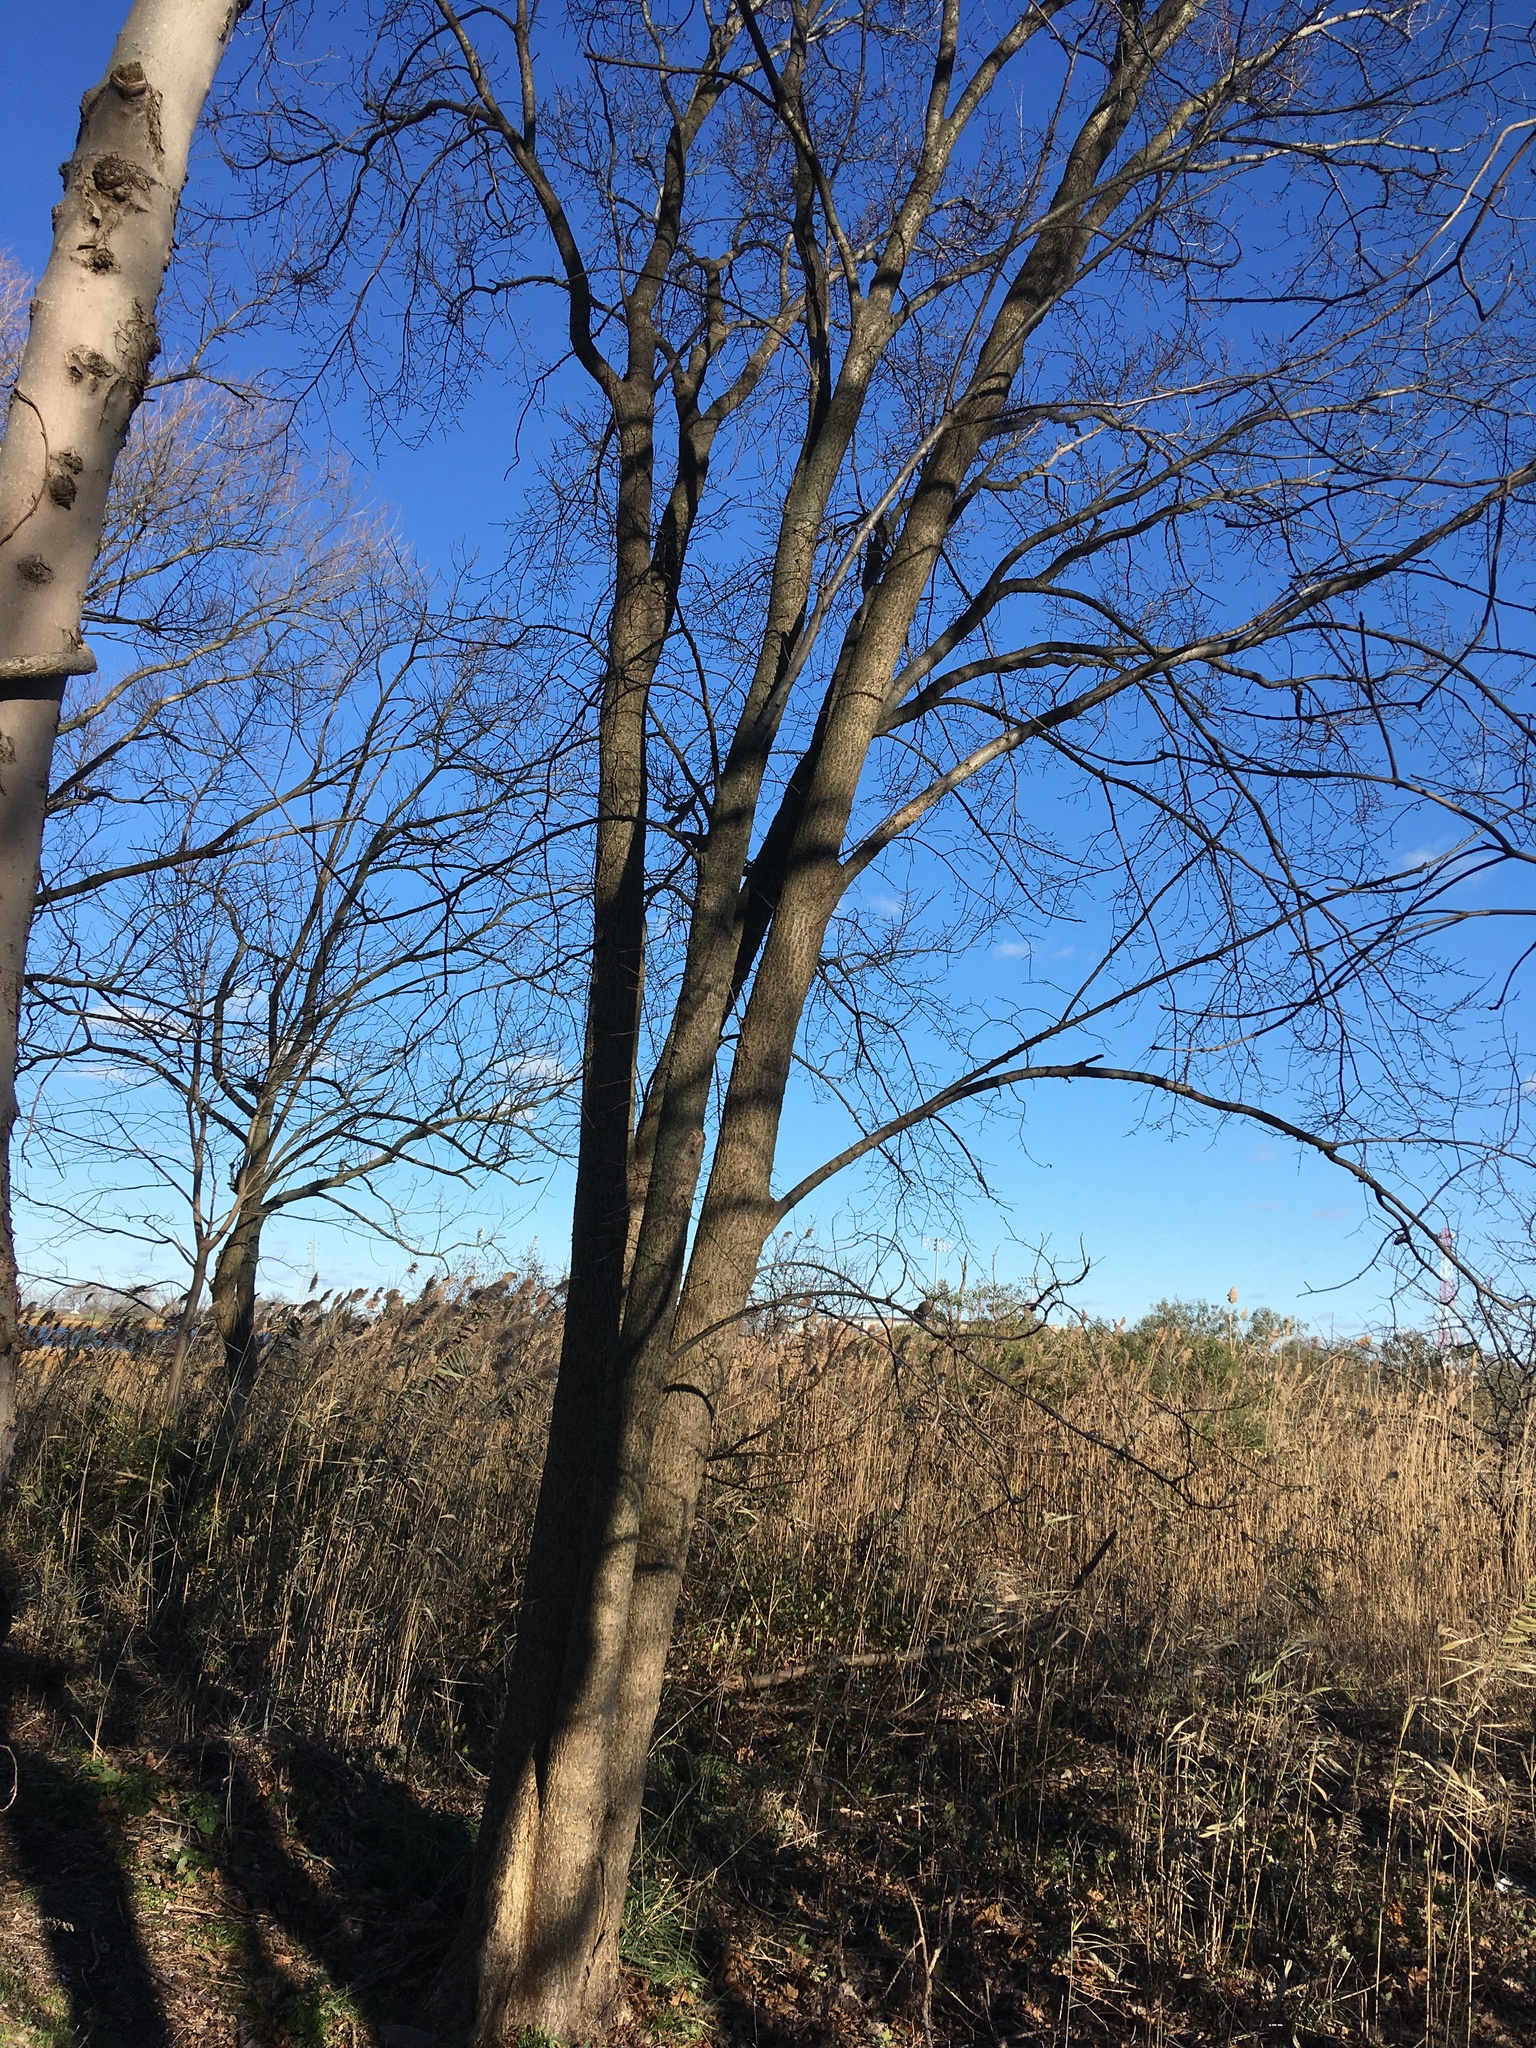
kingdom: Plantae
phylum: Tracheophyta
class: Magnoliopsida
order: Rosales
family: Ulmaceae
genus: Ulmus
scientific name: Ulmus americana
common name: American elm
